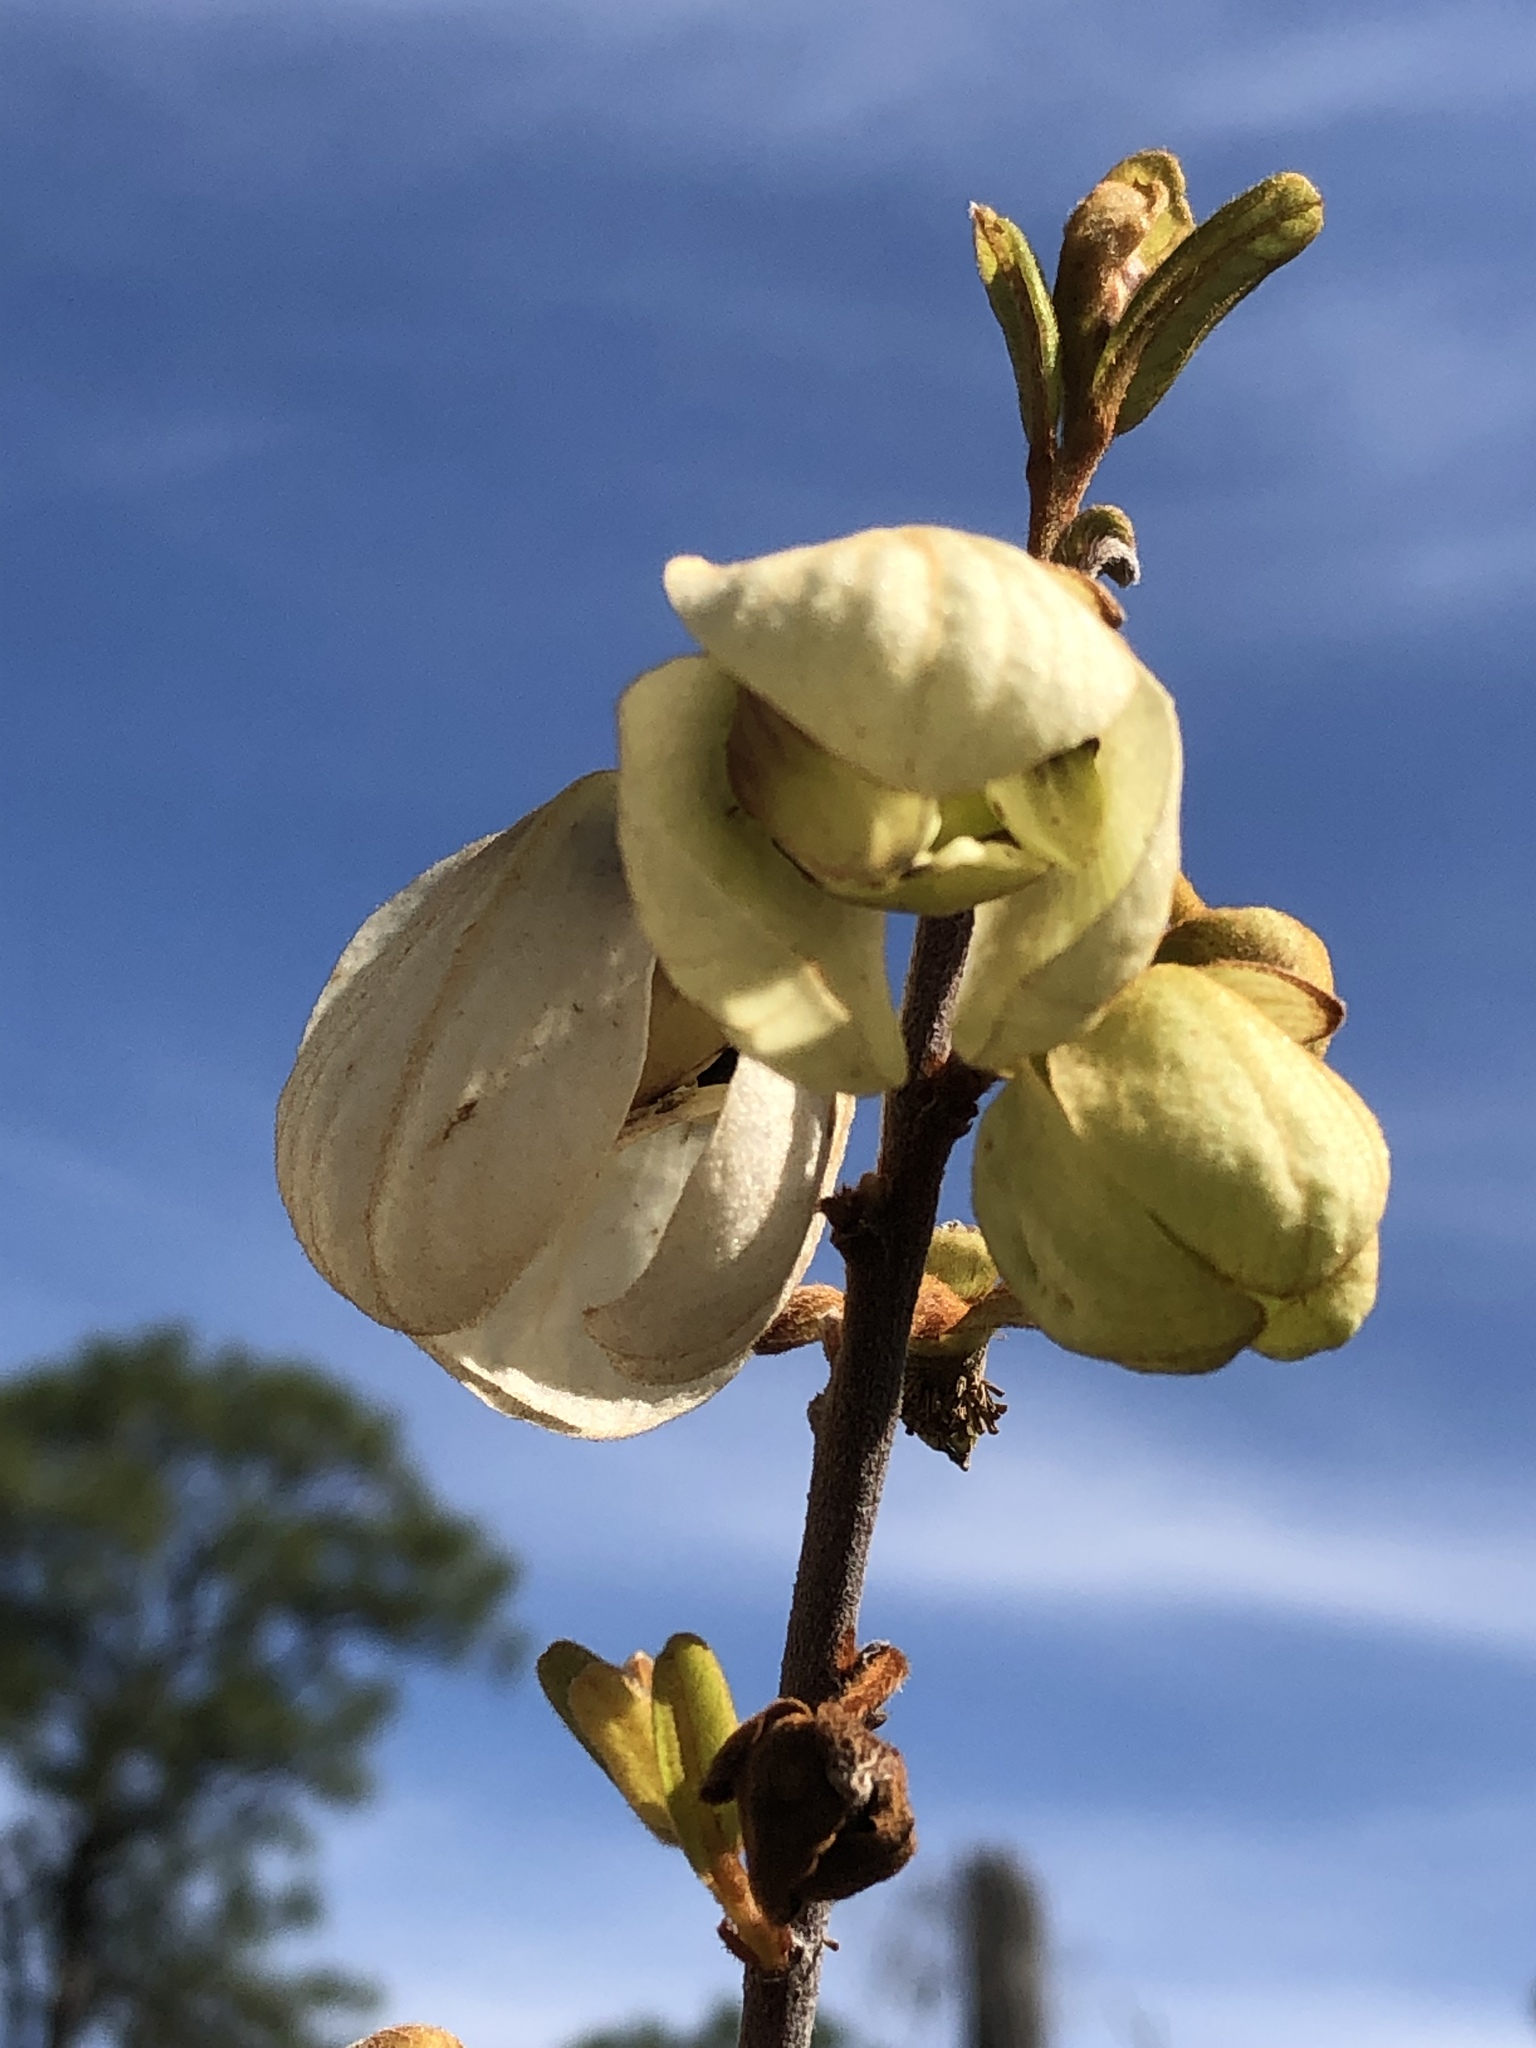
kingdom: Plantae
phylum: Tracheophyta
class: Magnoliopsida
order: Magnoliales
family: Annonaceae
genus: Asimina
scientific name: Asimina reticulata
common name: Flag pawpaw
